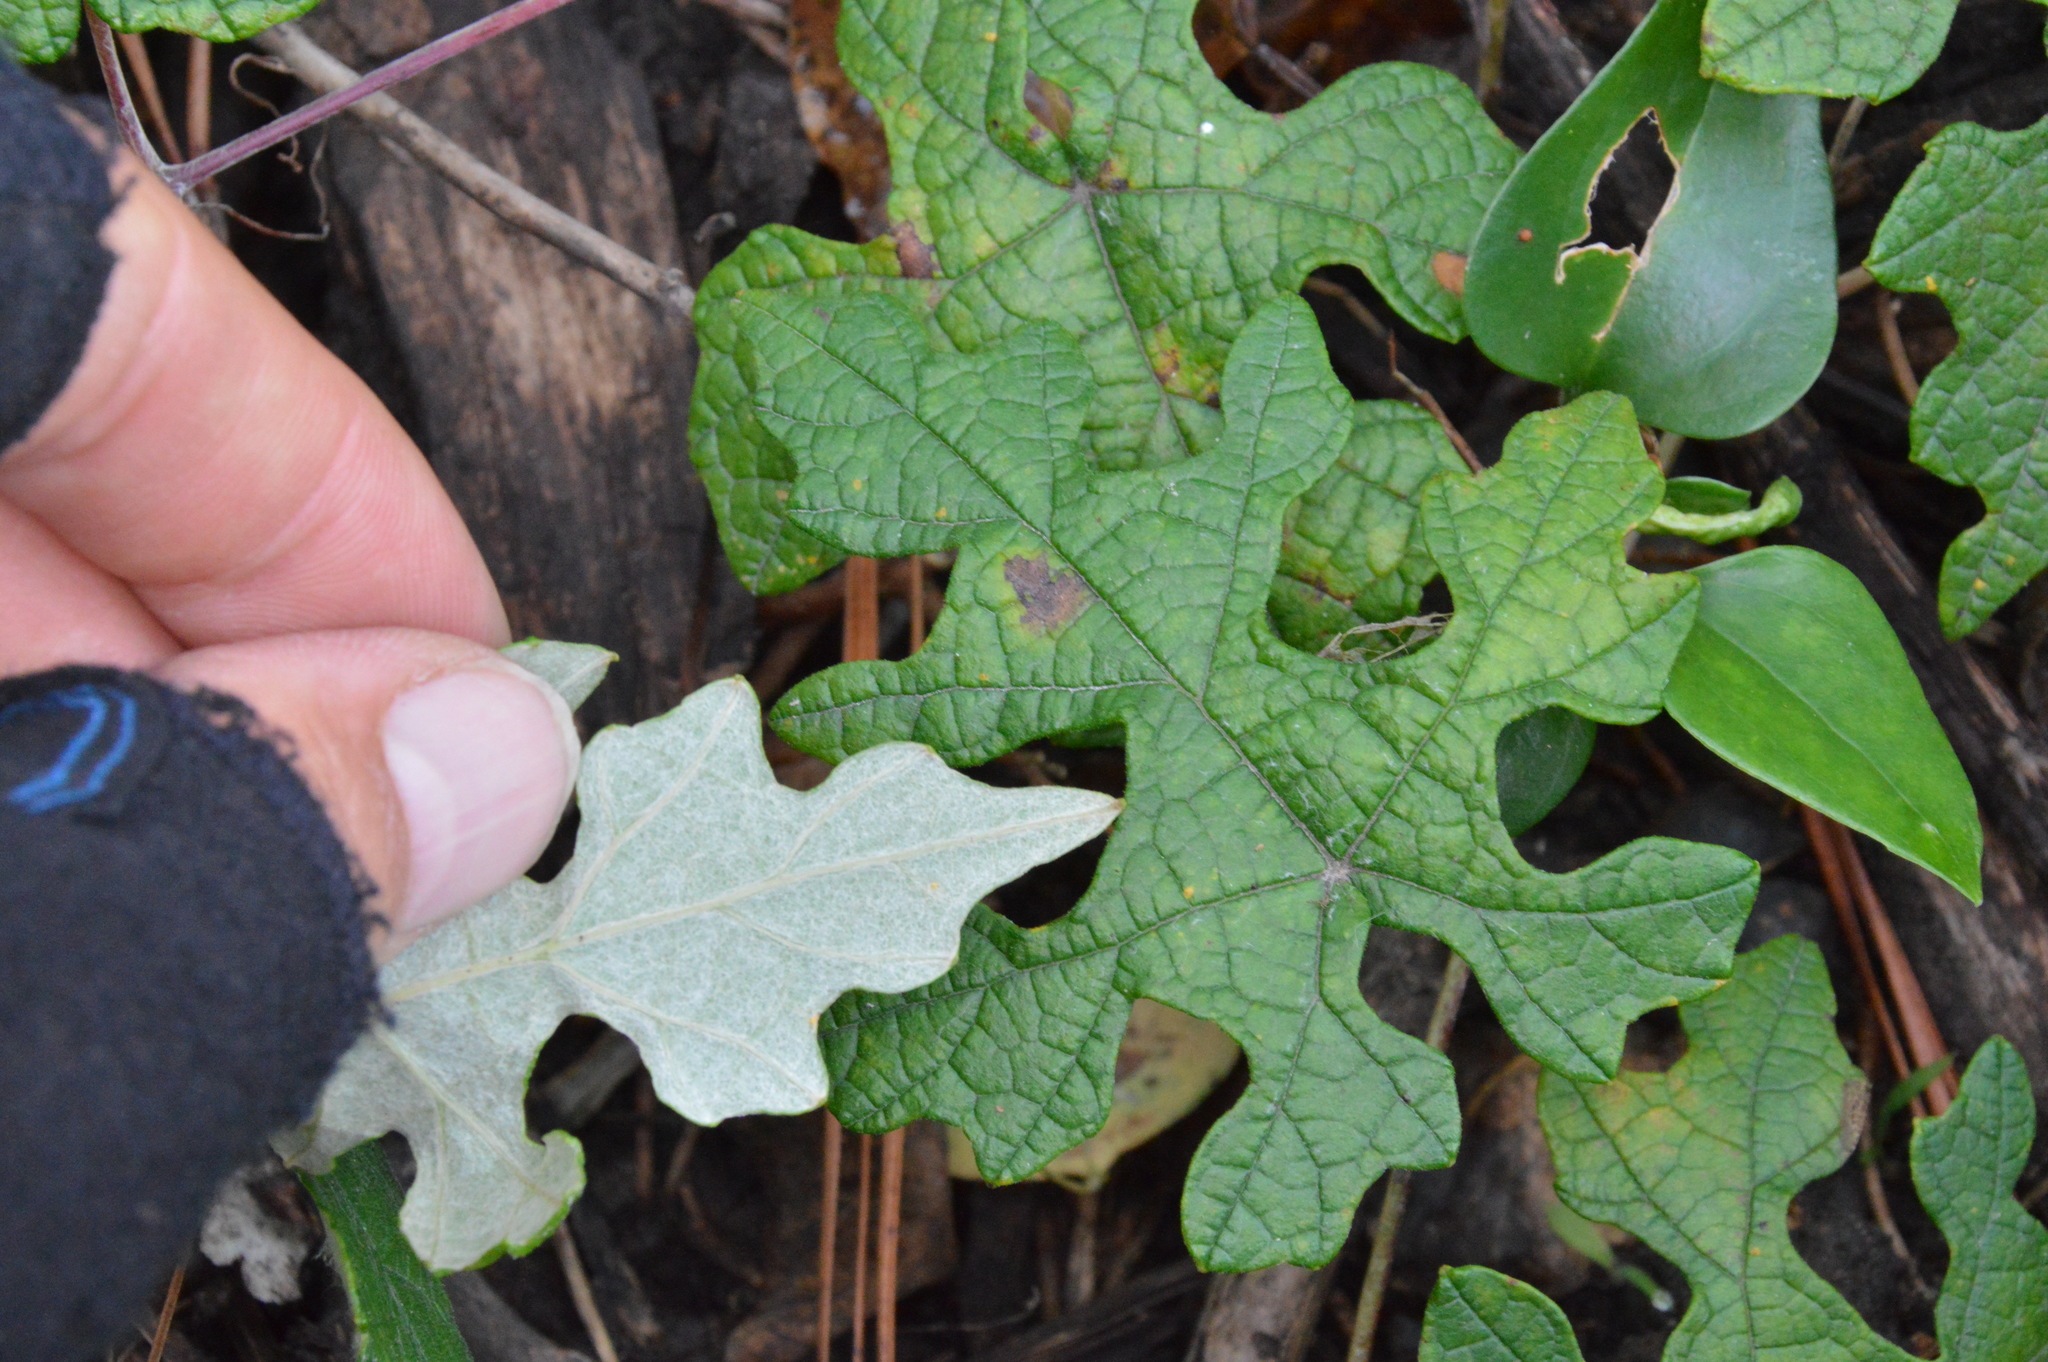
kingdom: Plantae
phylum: Tracheophyta
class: Magnoliopsida
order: Vitales
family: Vitaceae
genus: Vitis
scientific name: Vitis mustangensis
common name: Mustang grape
